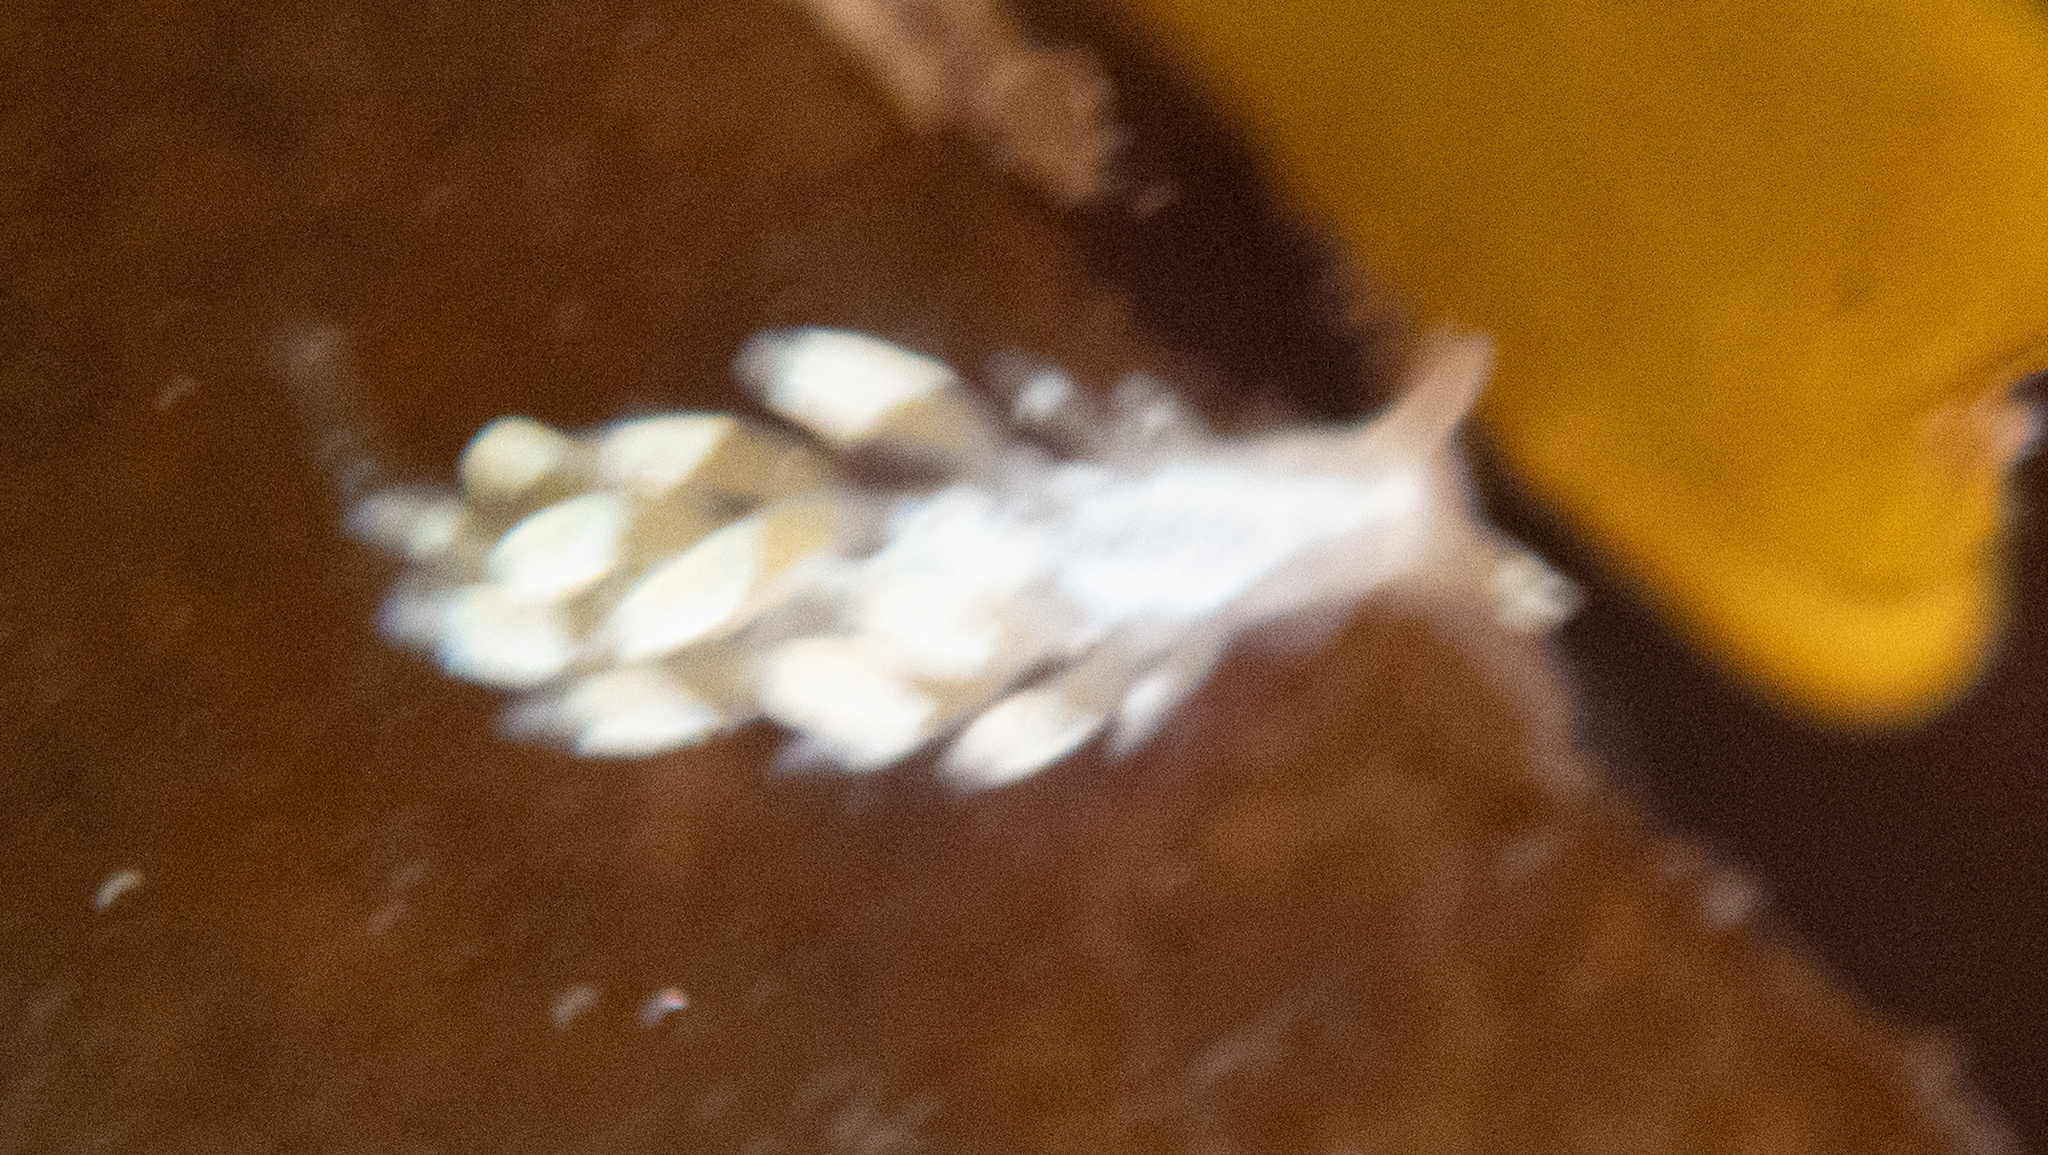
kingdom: Animalia
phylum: Mollusca
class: Gastropoda
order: Nudibranchia
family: Trinchesiidae
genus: Trinchesia
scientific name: Trinchesia albocrusta
